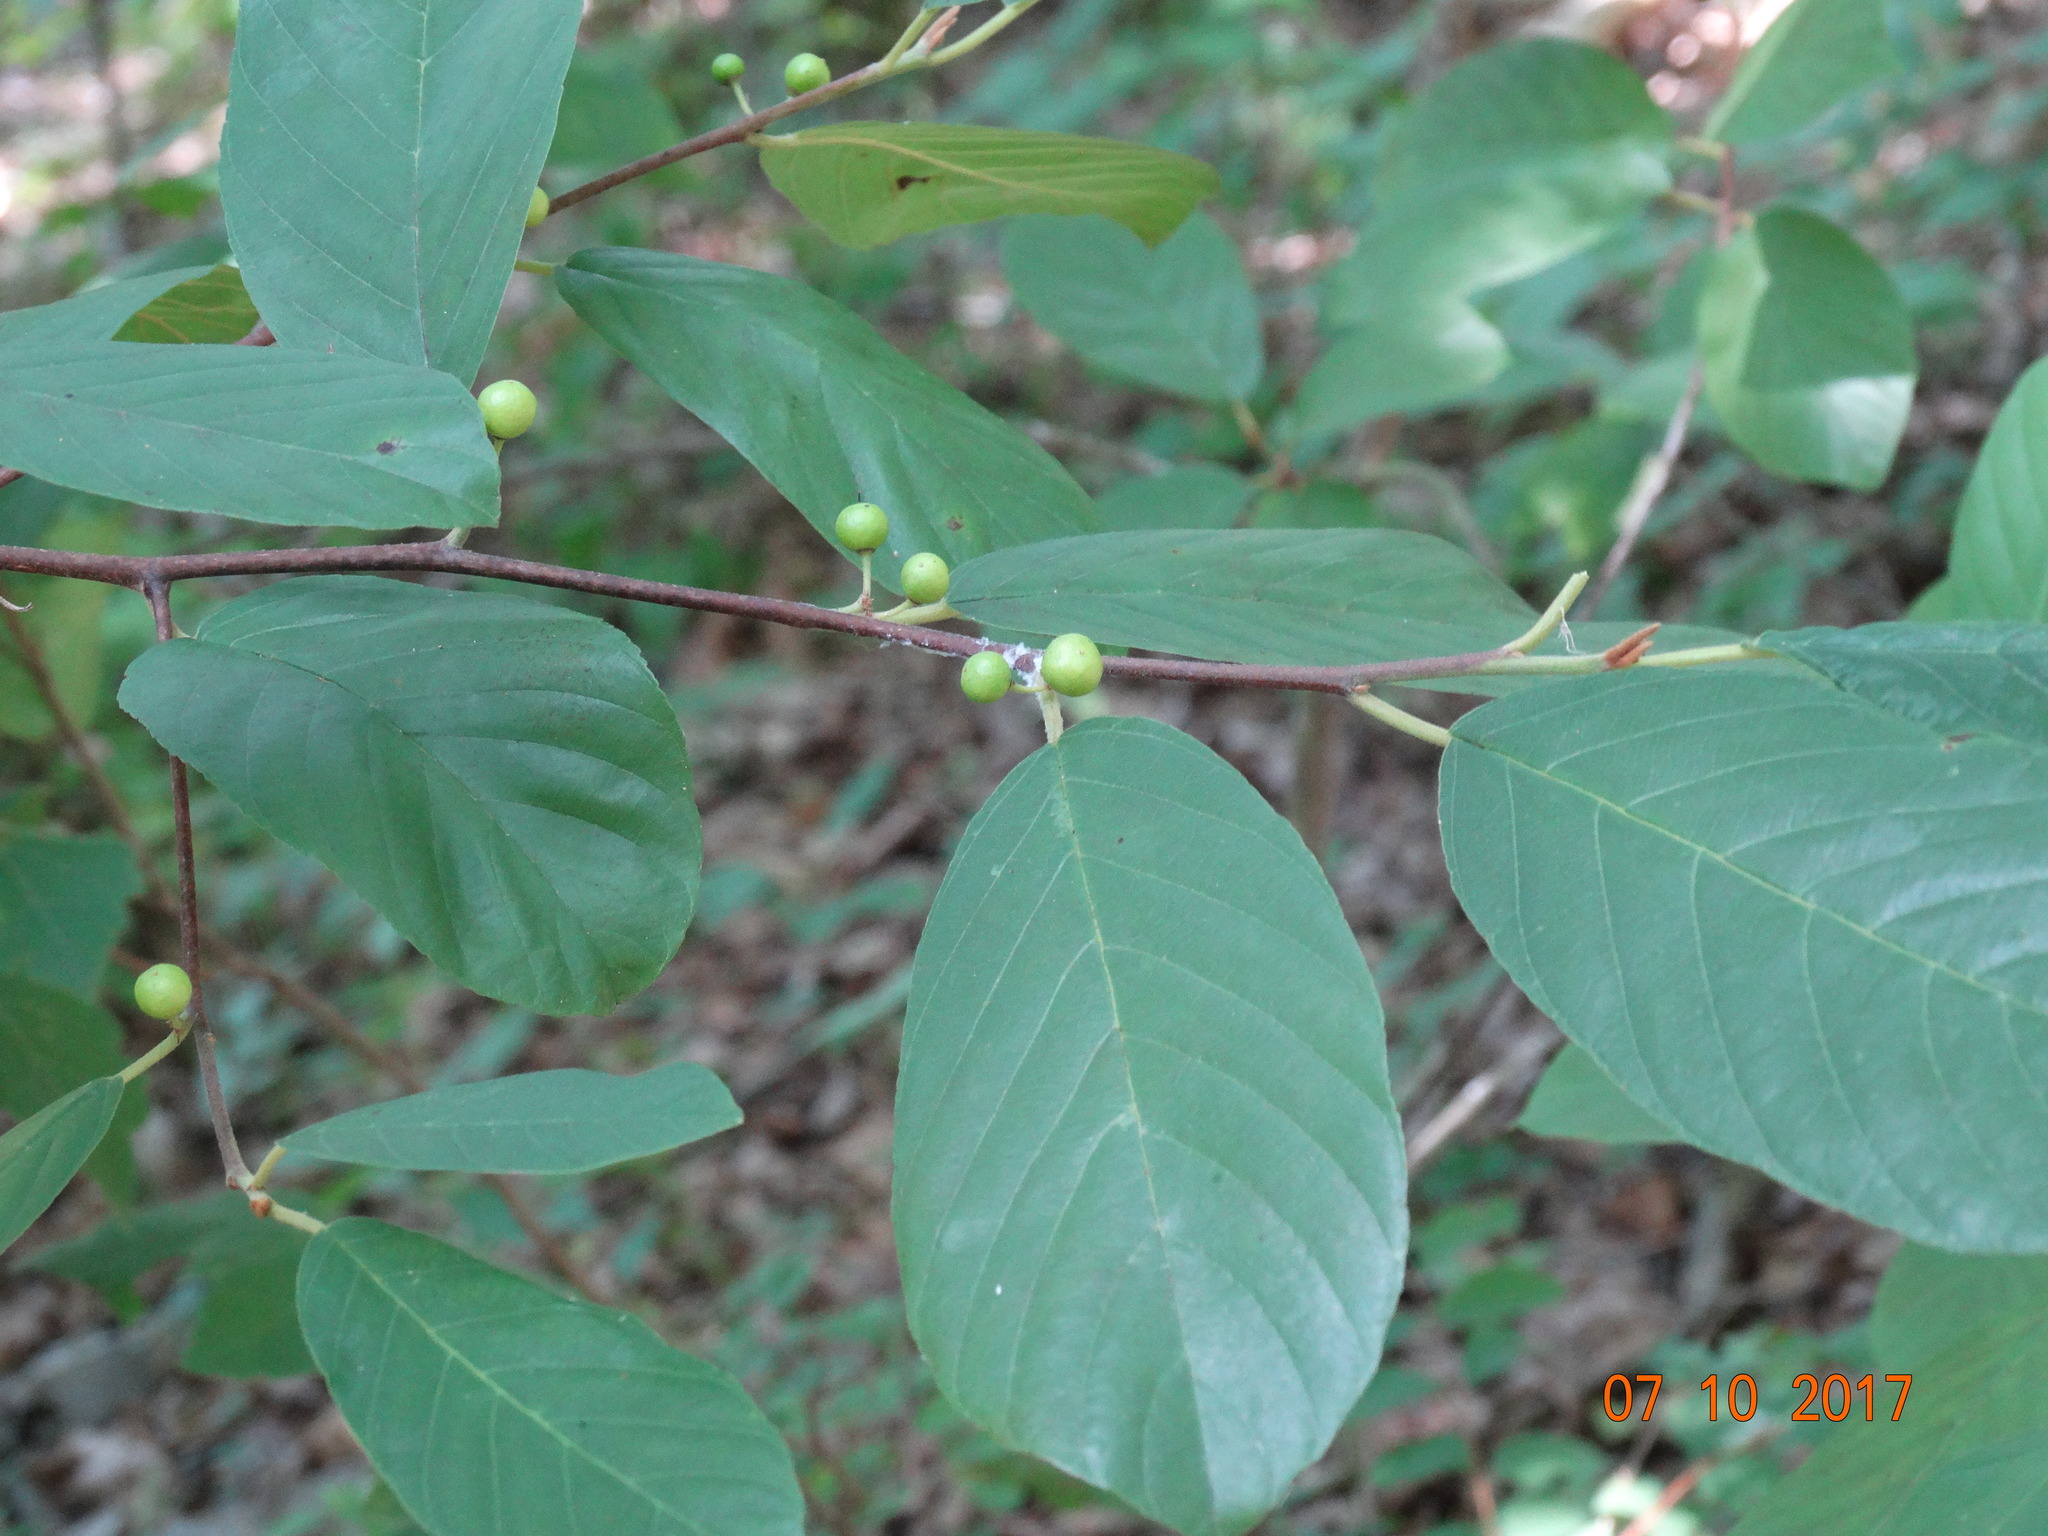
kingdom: Plantae
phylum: Tracheophyta
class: Magnoliopsida
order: Rosales
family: Rhamnaceae
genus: Frangula
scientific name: Frangula caroliniana
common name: Carolina buckthorn
